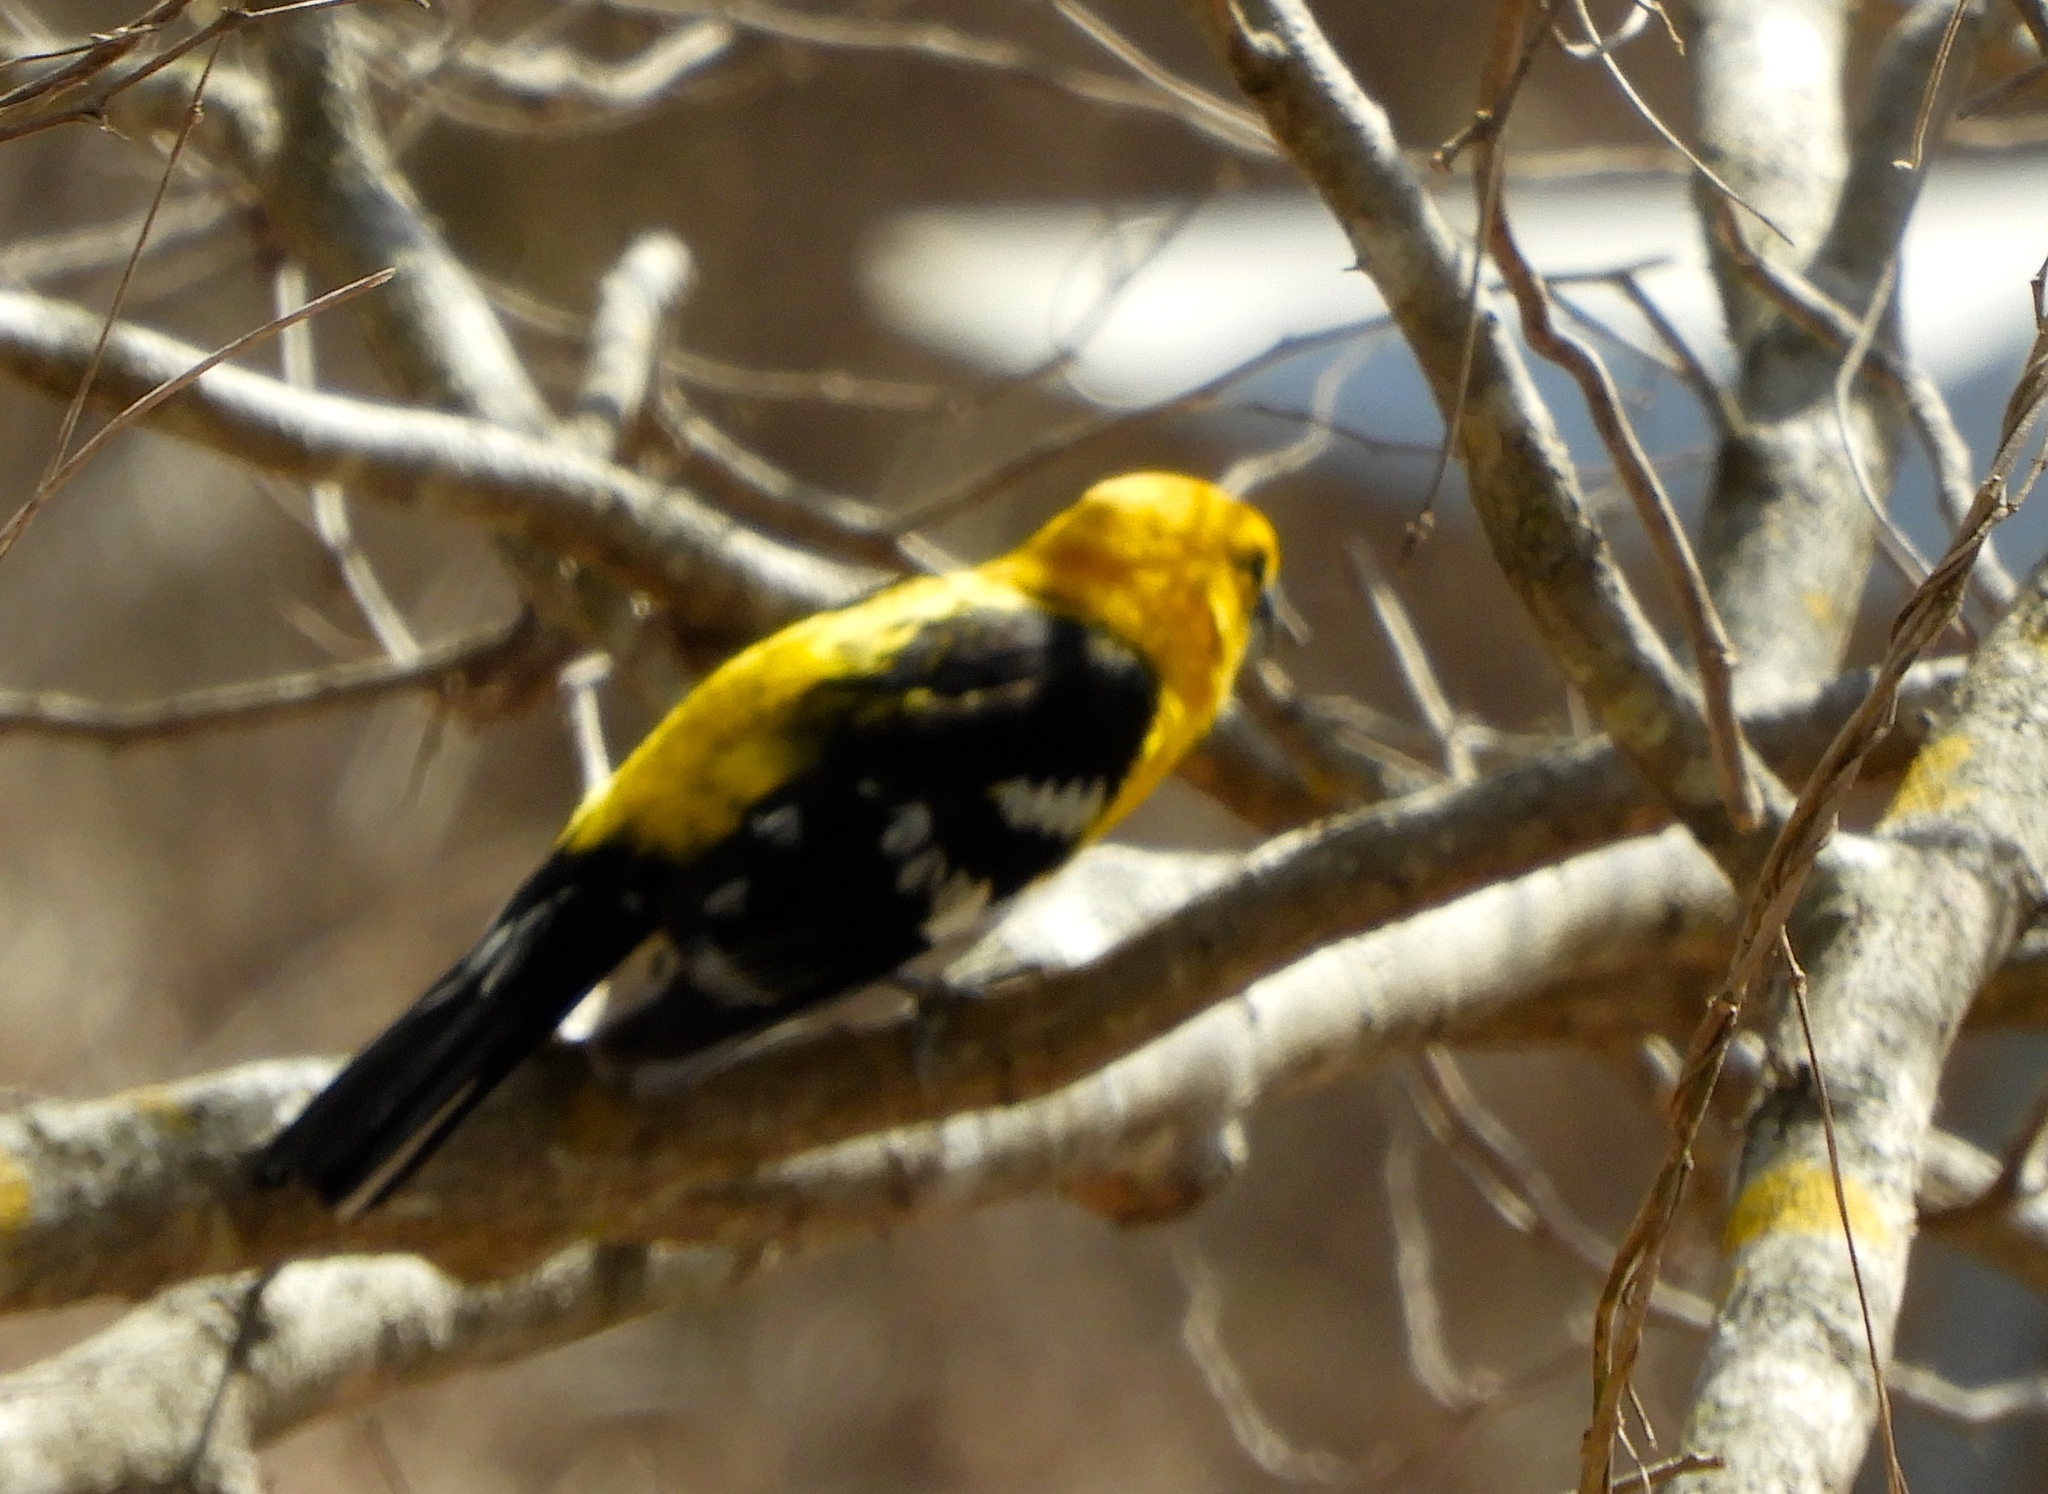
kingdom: Animalia
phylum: Chordata
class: Aves
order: Passeriformes
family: Cardinalidae
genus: Pheucticus
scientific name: Pheucticus chrysopeplus
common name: Yellow grosbeak
